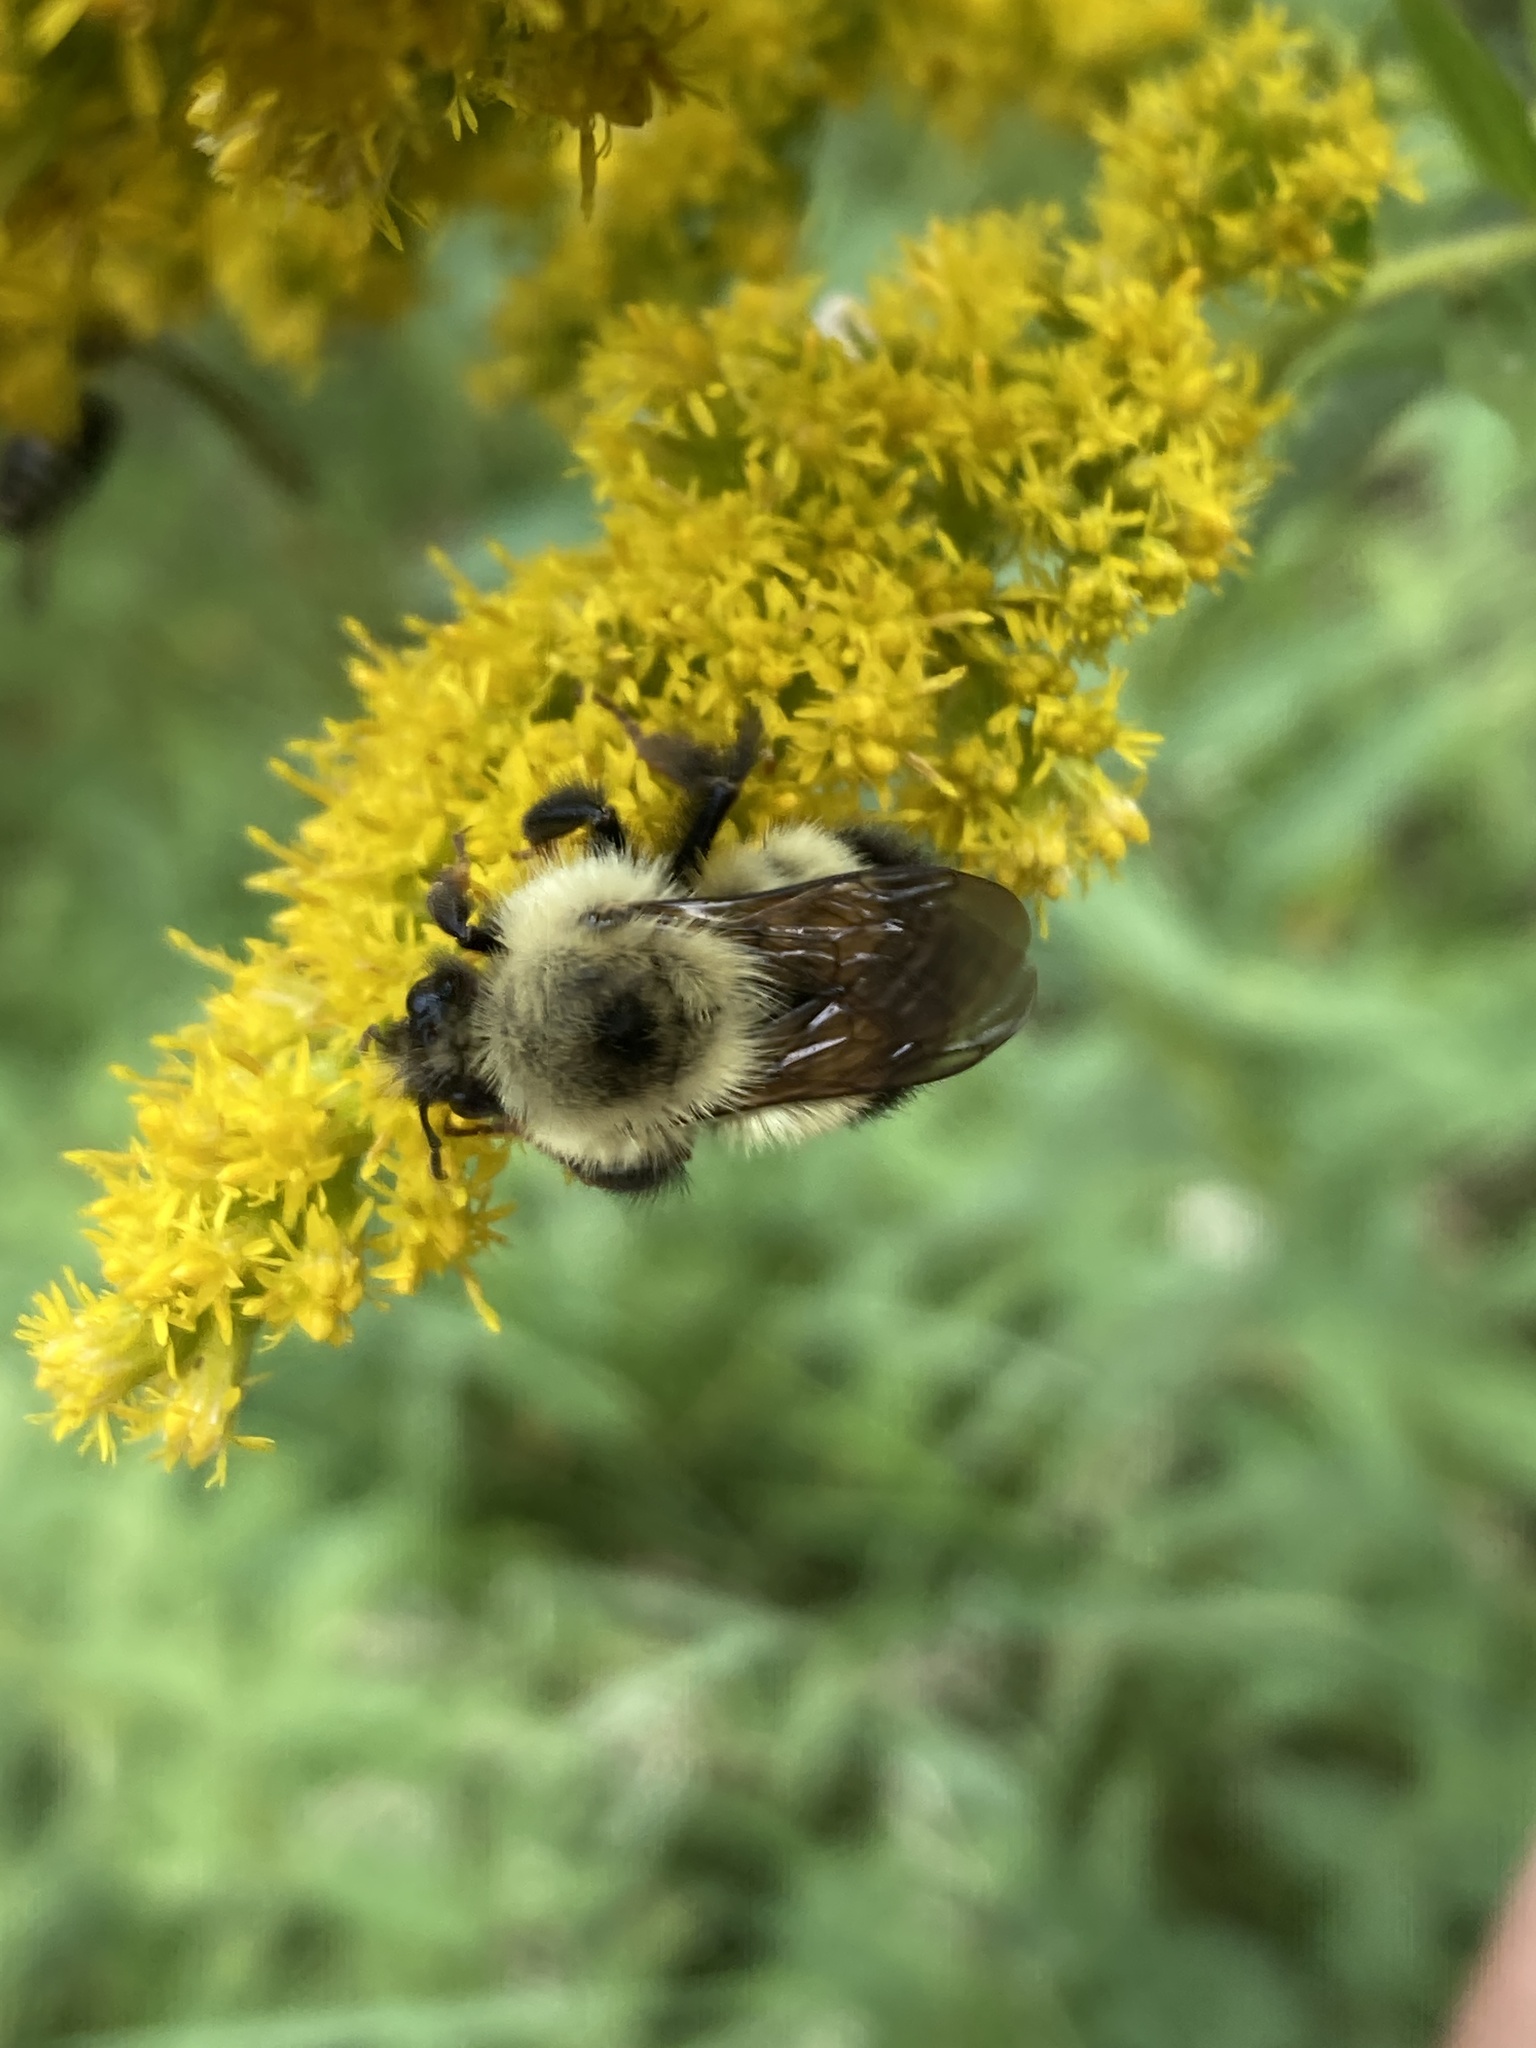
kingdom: Animalia
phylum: Arthropoda
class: Insecta
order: Hymenoptera
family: Apidae
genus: Pyrobombus
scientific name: Pyrobombus
